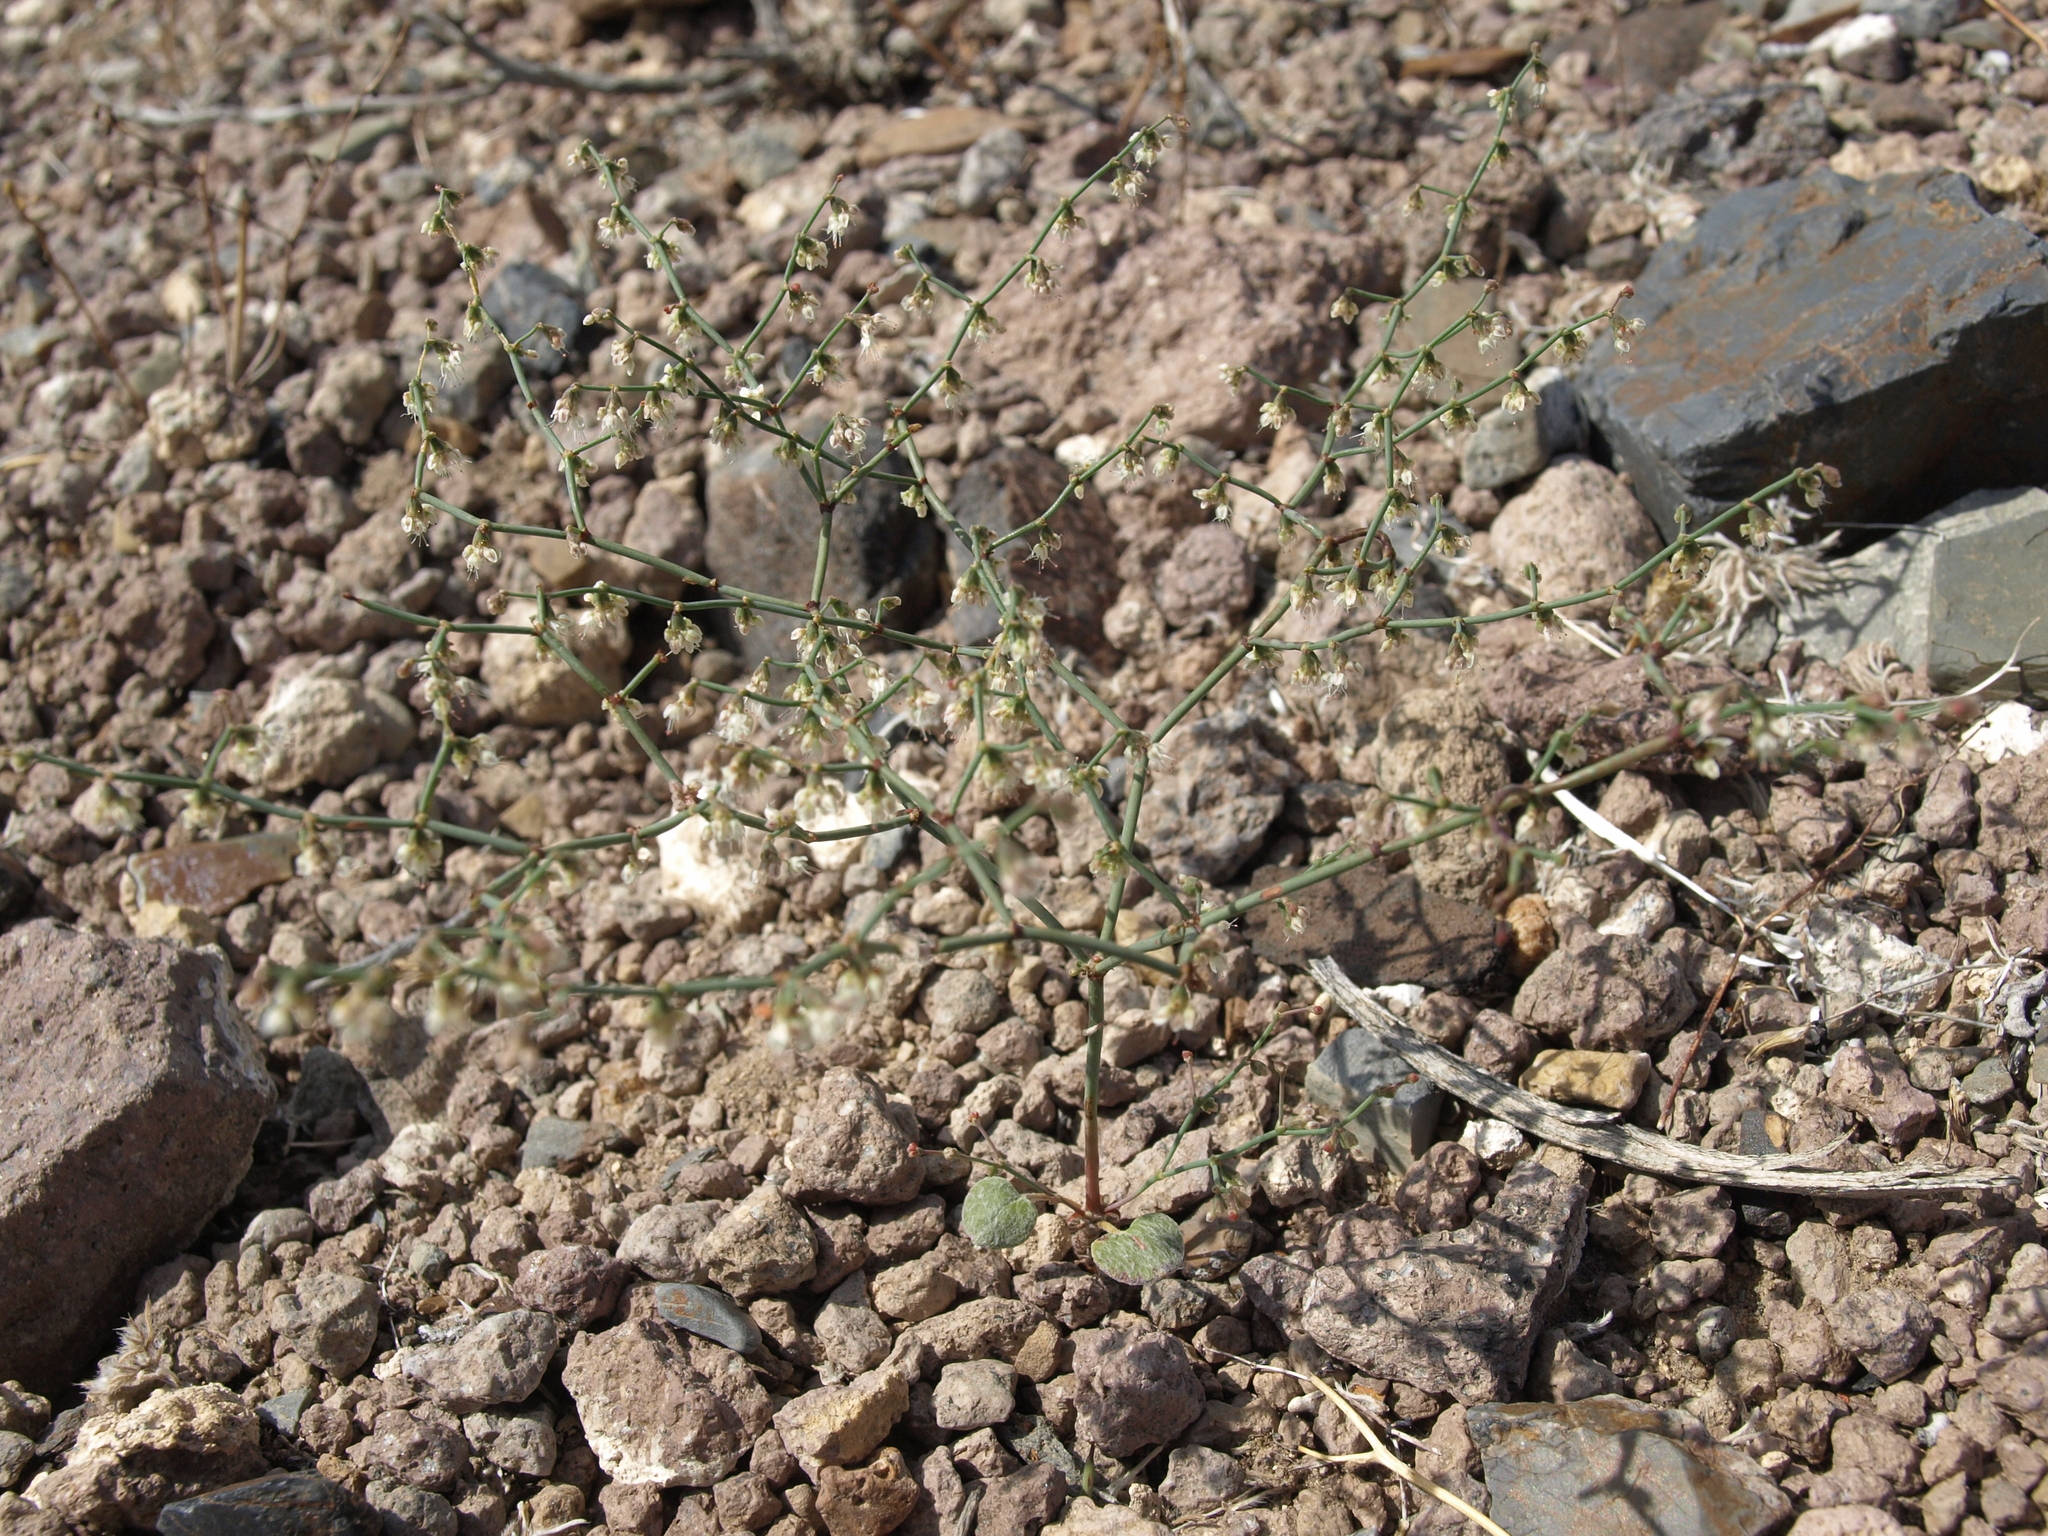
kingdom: Plantae
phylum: Tracheophyta
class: Magnoliopsida
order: Caryophyllales
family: Polygonaceae
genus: Eriogonum
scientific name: Eriogonum deflexum
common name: Skeleton-weed
